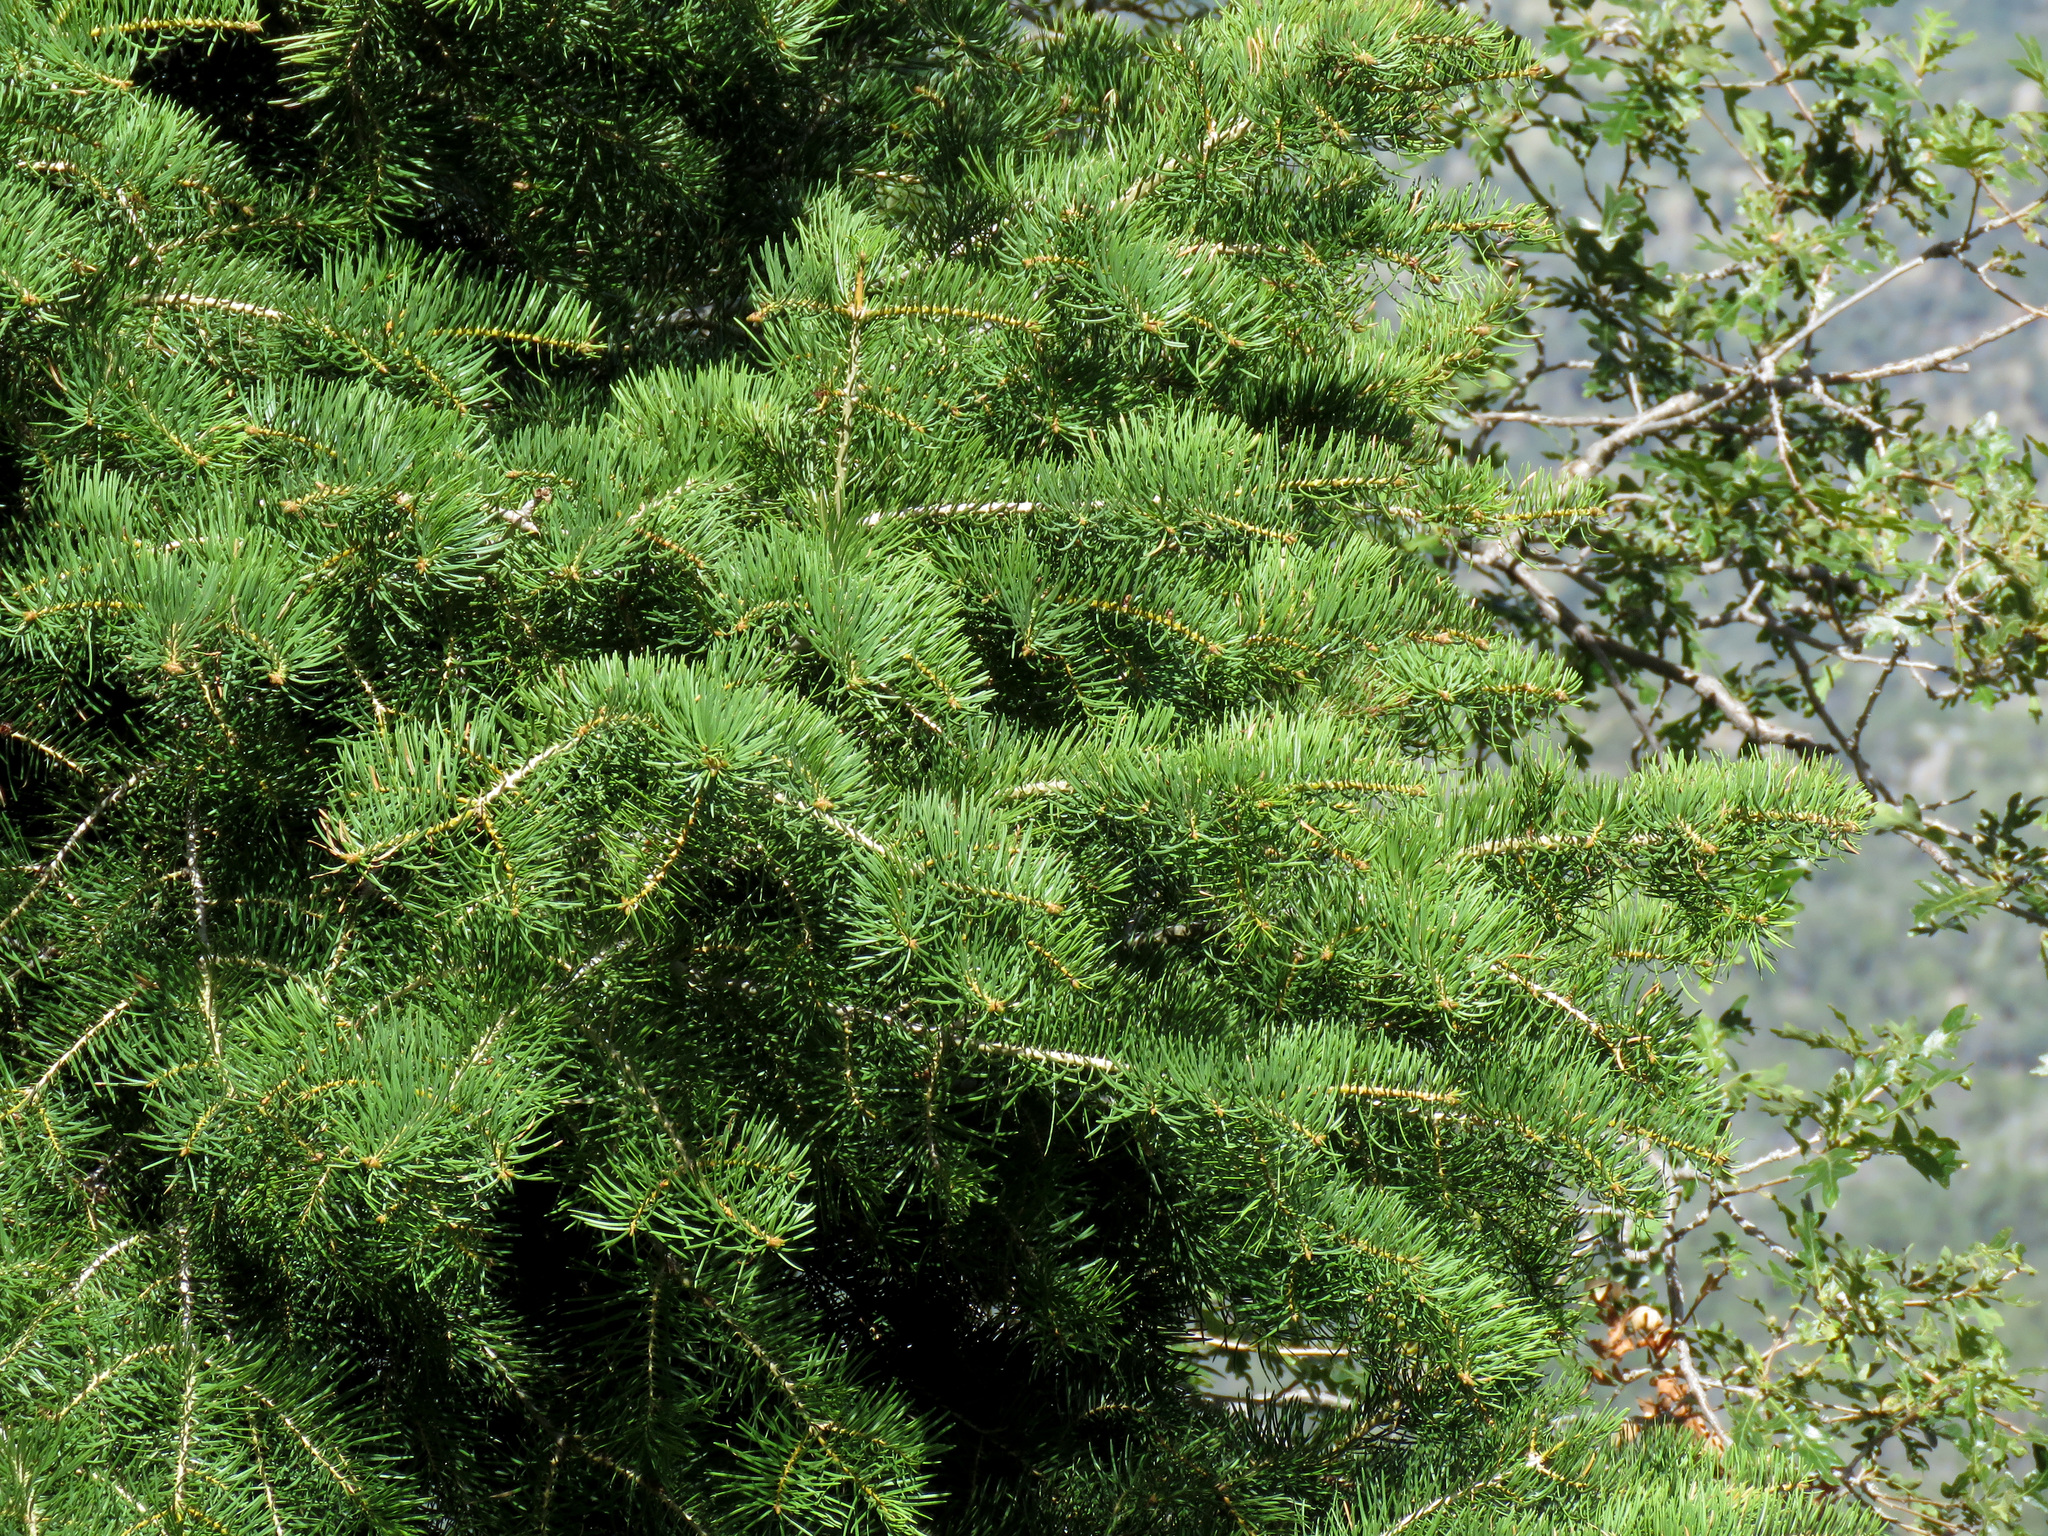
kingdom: Plantae
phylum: Tracheophyta
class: Pinopsida
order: Pinales
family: Pinaceae
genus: Abies
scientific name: Abies concolor
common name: Colorado fir
